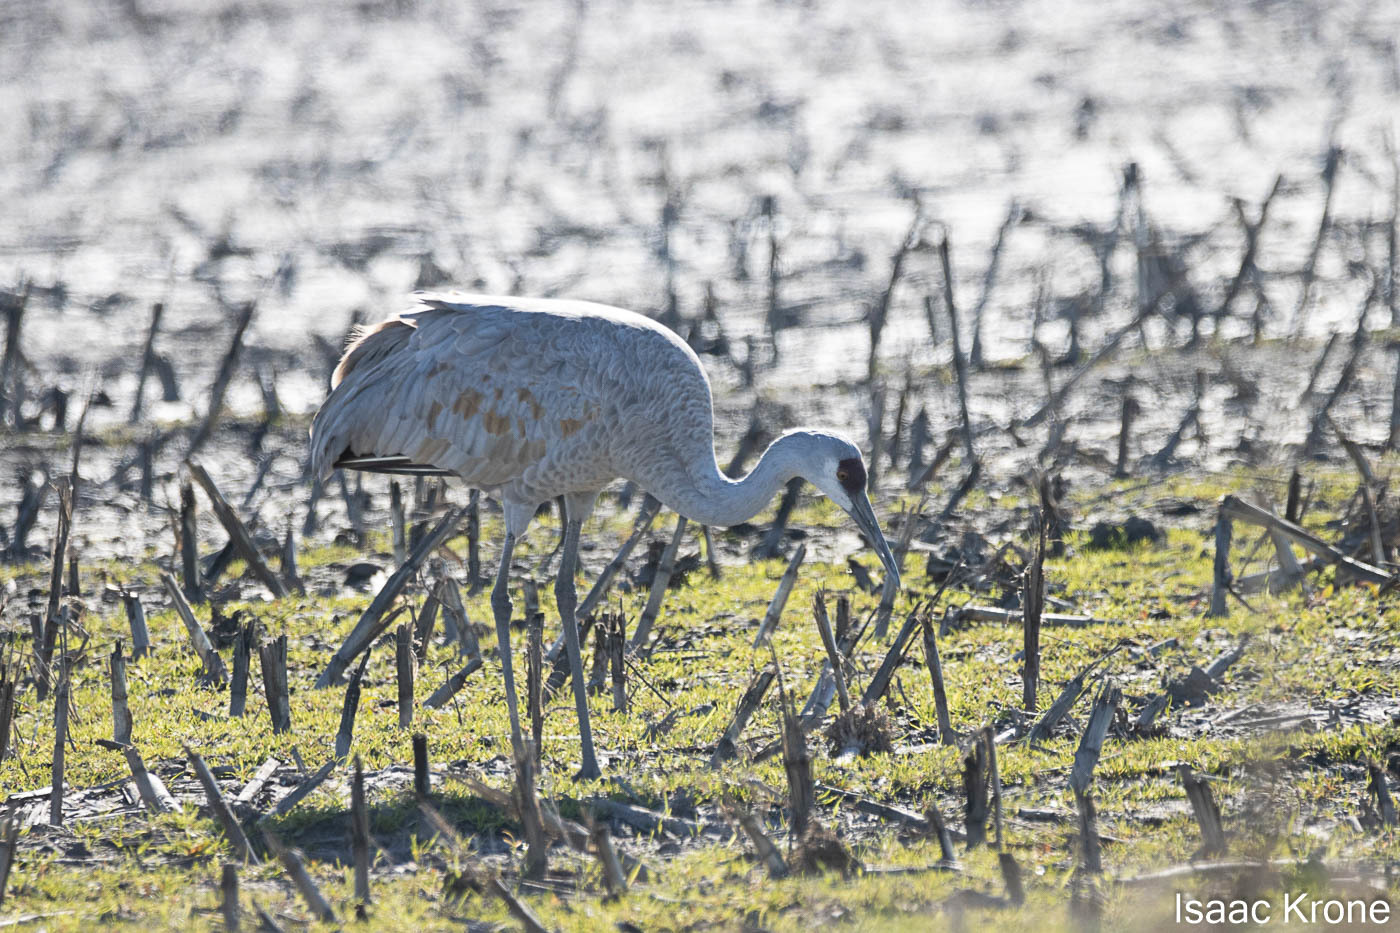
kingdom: Animalia
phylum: Chordata
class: Aves
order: Gruiformes
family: Gruidae
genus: Grus
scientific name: Grus canadensis
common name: Sandhill crane
